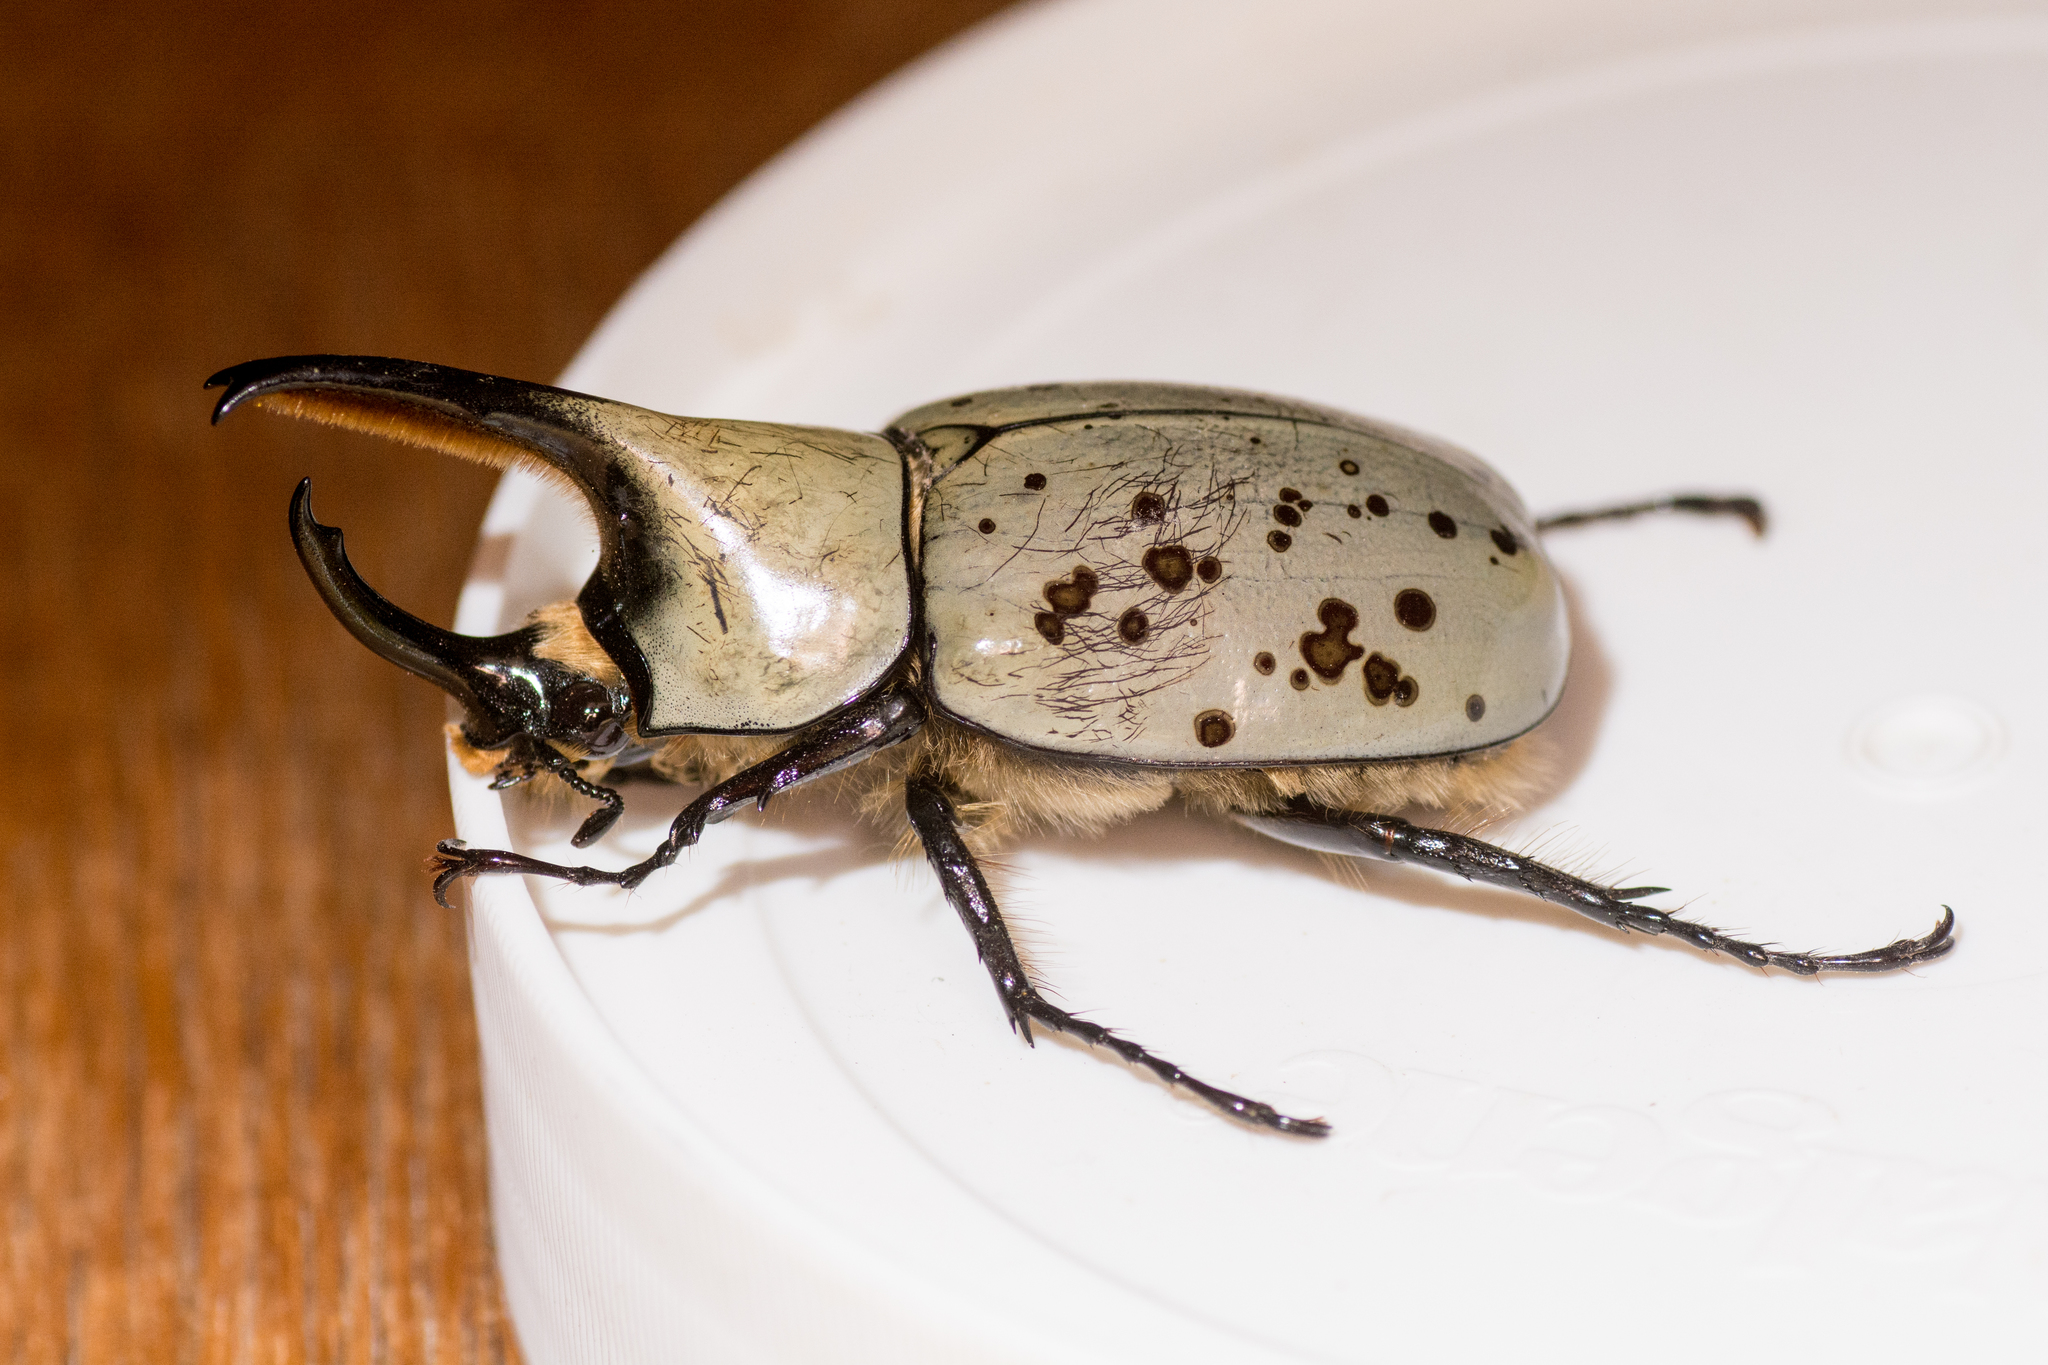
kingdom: Animalia
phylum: Arthropoda
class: Insecta
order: Coleoptera
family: Scarabaeidae
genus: Dynastes
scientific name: Dynastes grantii
